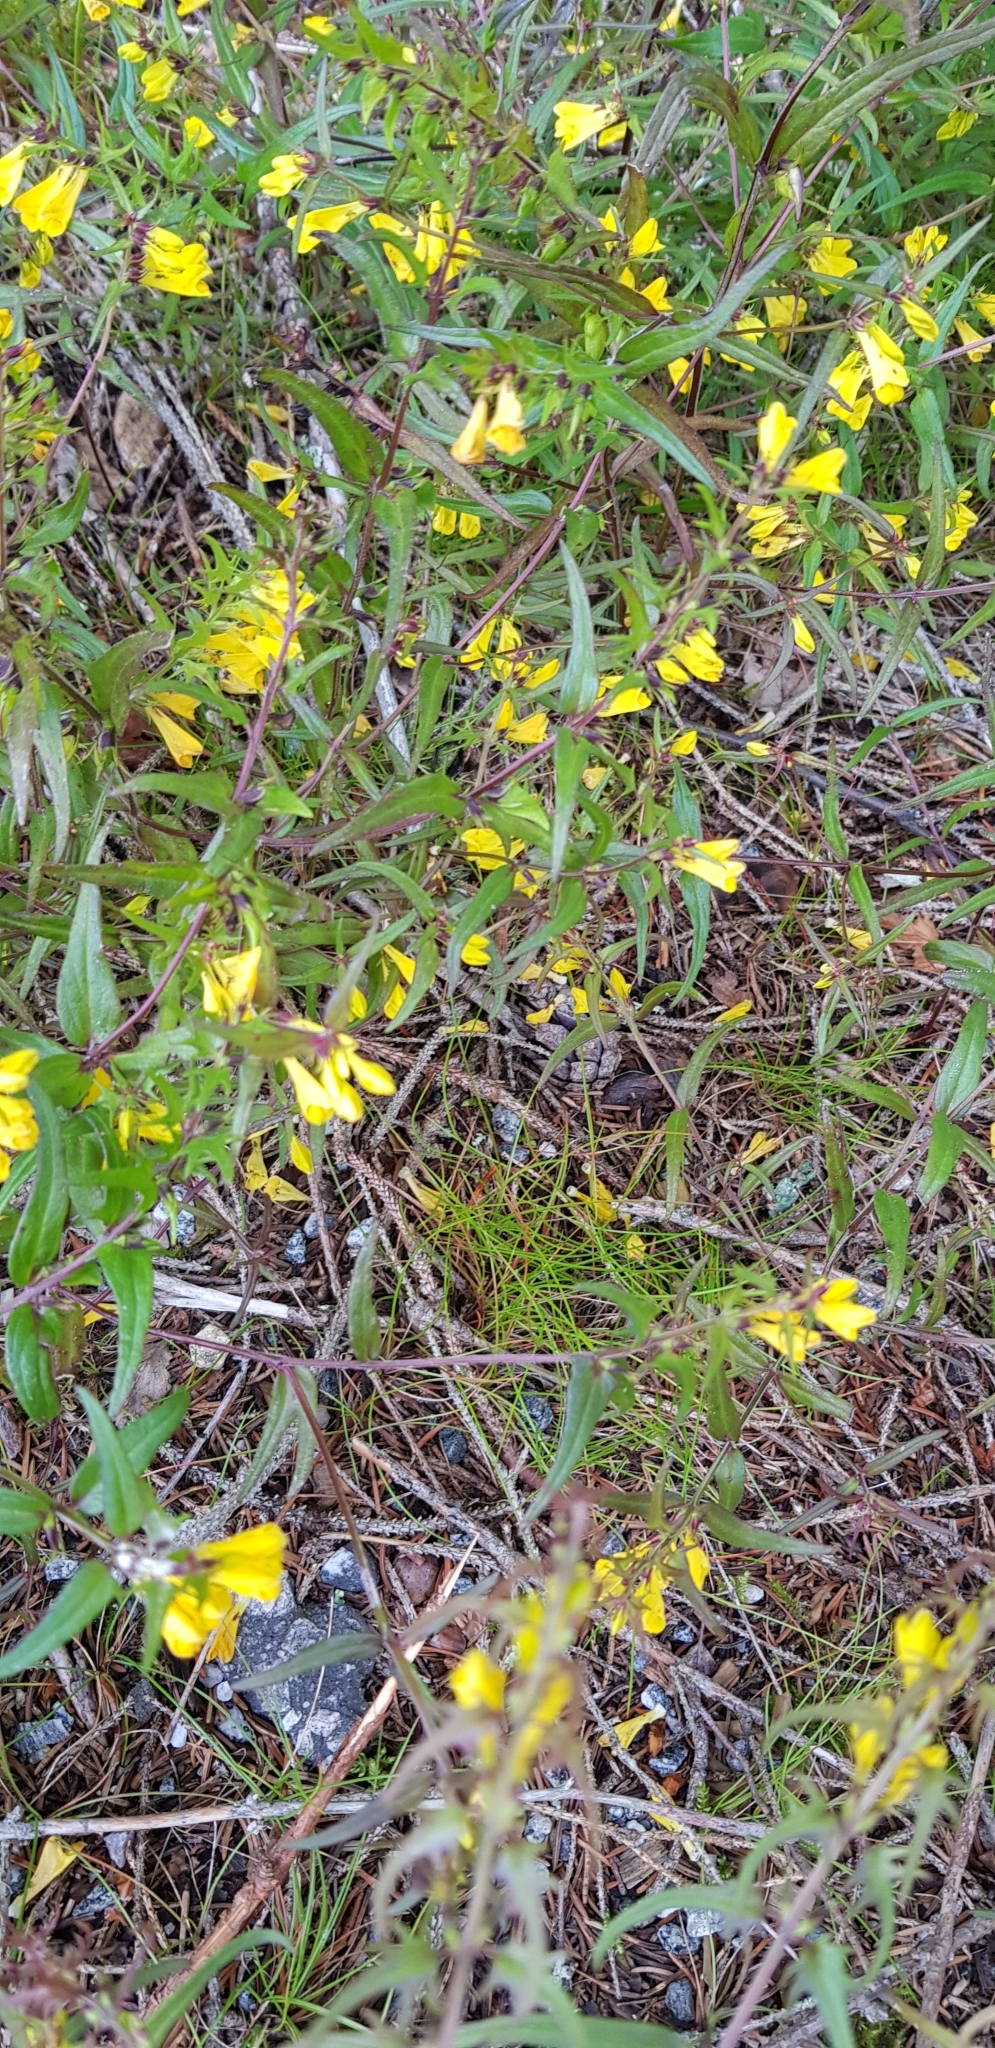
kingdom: Plantae
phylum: Tracheophyta
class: Magnoliopsida
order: Lamiales
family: Orobanchaceae
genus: Melampyrum
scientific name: Melampyrum pratense
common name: Common cow-wheat
